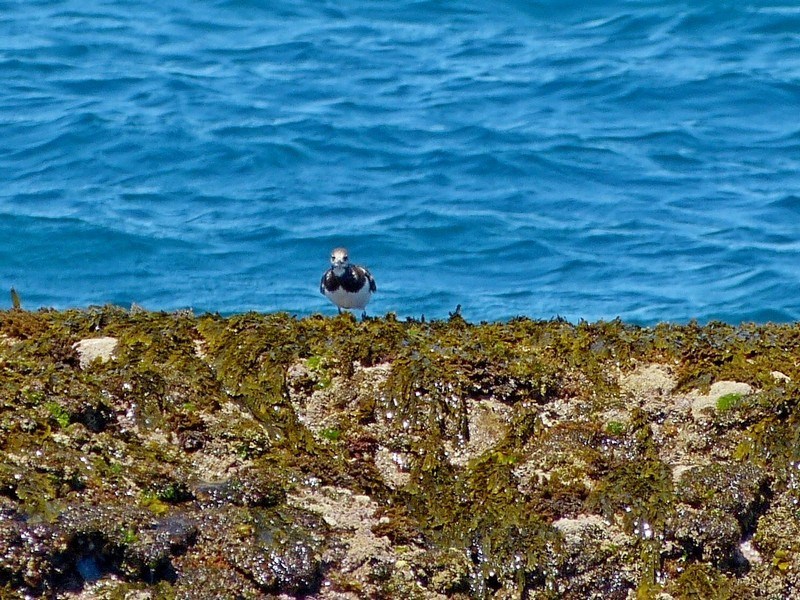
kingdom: Animalia
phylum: Chordata
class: Aves
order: Charadriiformes
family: Scolopacidae
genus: Arenaria
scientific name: Arenaria interpres
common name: Ruddy turnstone
